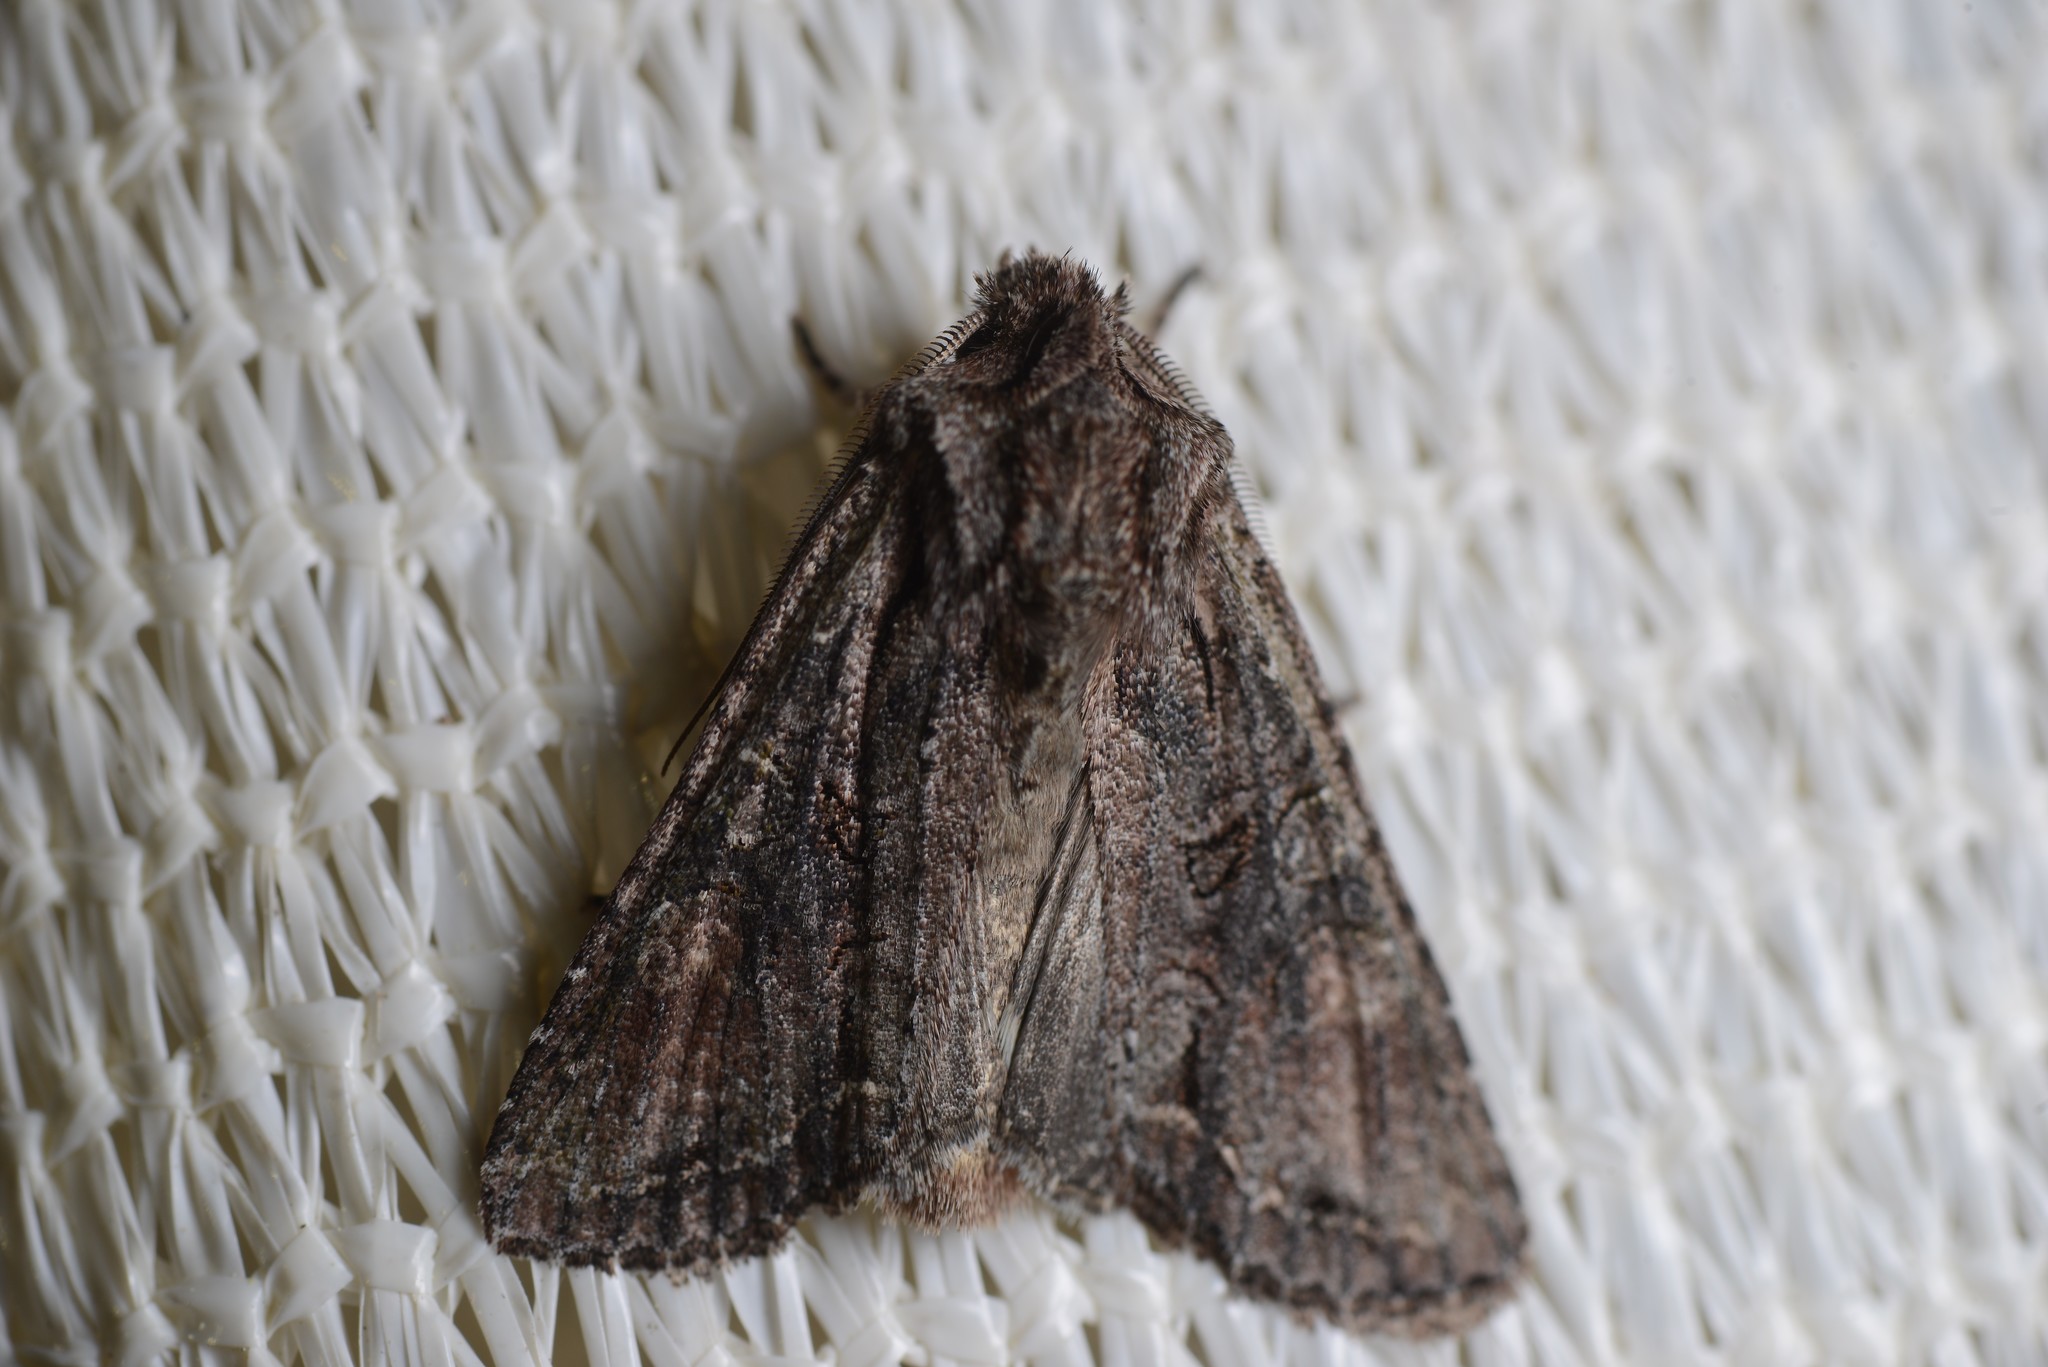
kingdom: Animalia
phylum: Arthropoda
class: Insecta
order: Lepidoptera
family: Noctuidae
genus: Ichneutica
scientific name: Ichneutica mutans
